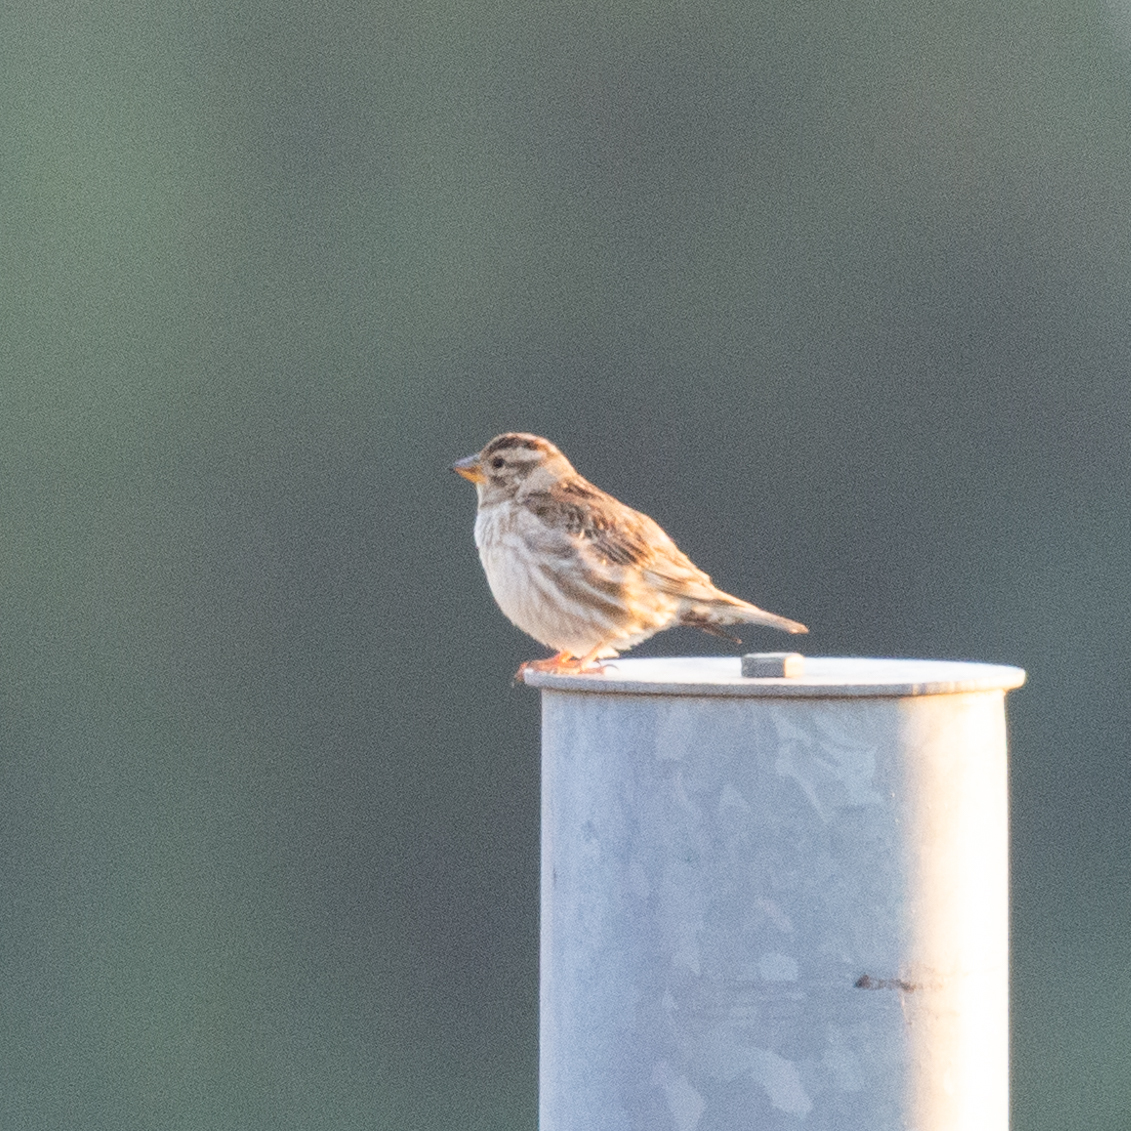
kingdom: Animalia
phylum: Chordata
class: Aves
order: Passeriformes
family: Passeridae
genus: Petronia
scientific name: Petronia petronia
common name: Rock sparrow
